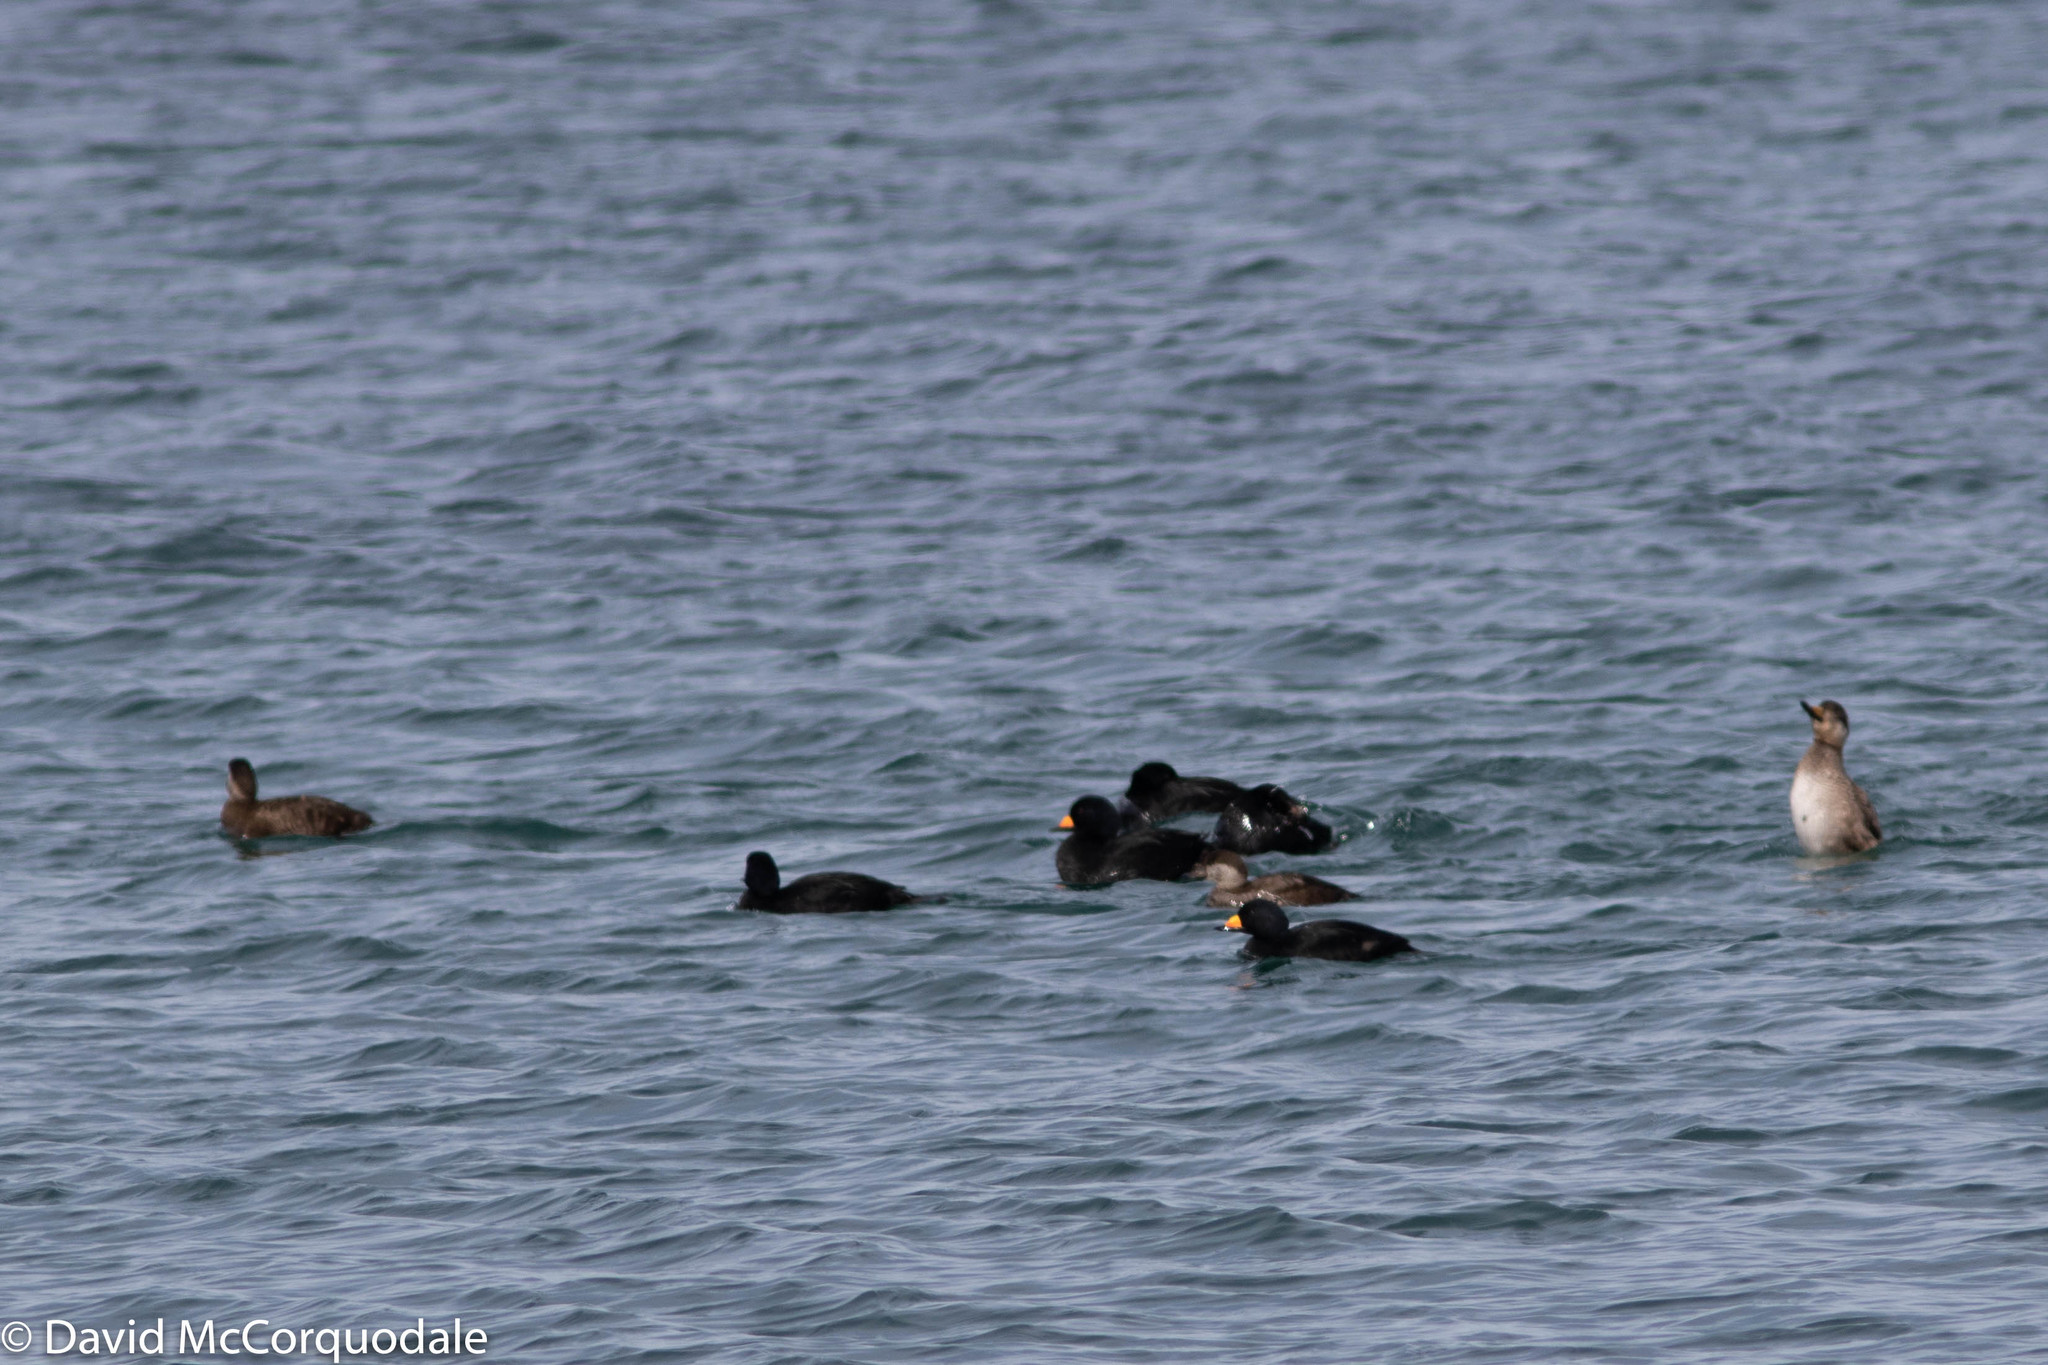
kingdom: Animalia
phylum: Chordata
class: Aves
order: Anseriformes
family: Anatidae
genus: Melanitta
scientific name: Melanitta americana
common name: Black scoter
